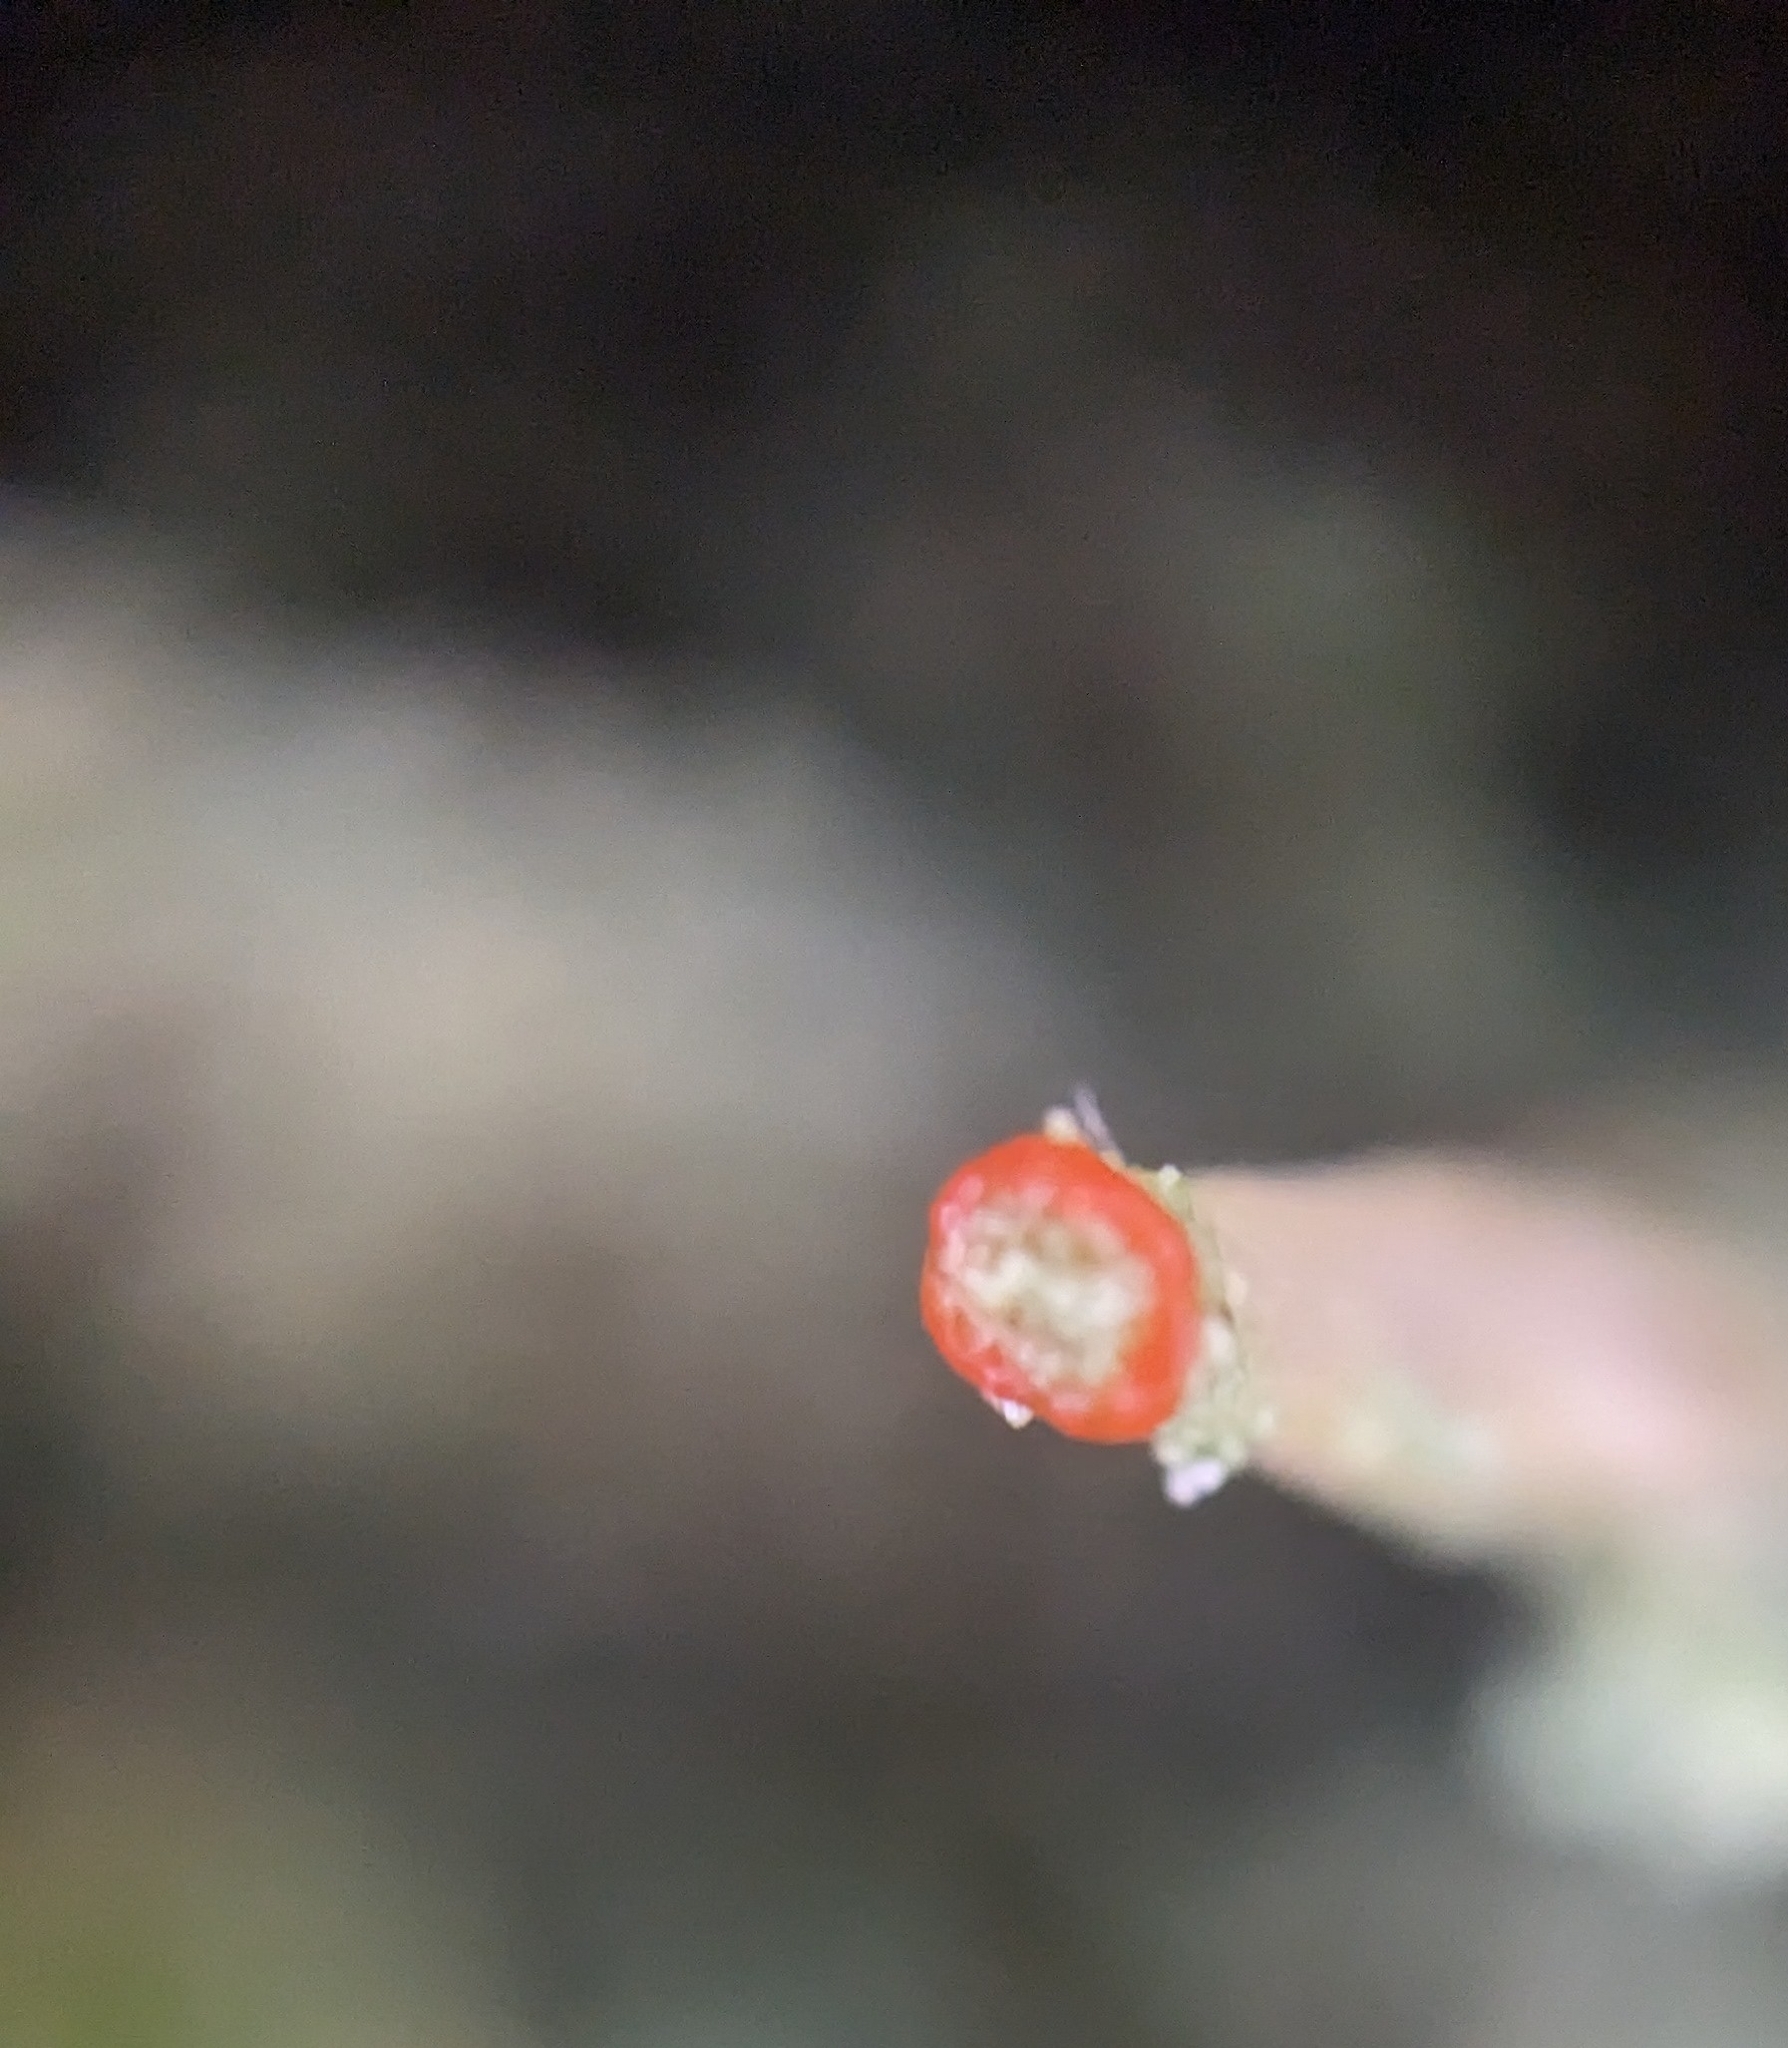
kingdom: Fungi
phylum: Ascomycota
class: Lecanoromycetes
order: Lecanorales
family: Cladoniaceae
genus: Cladonia
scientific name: Cladonia polydactyla
